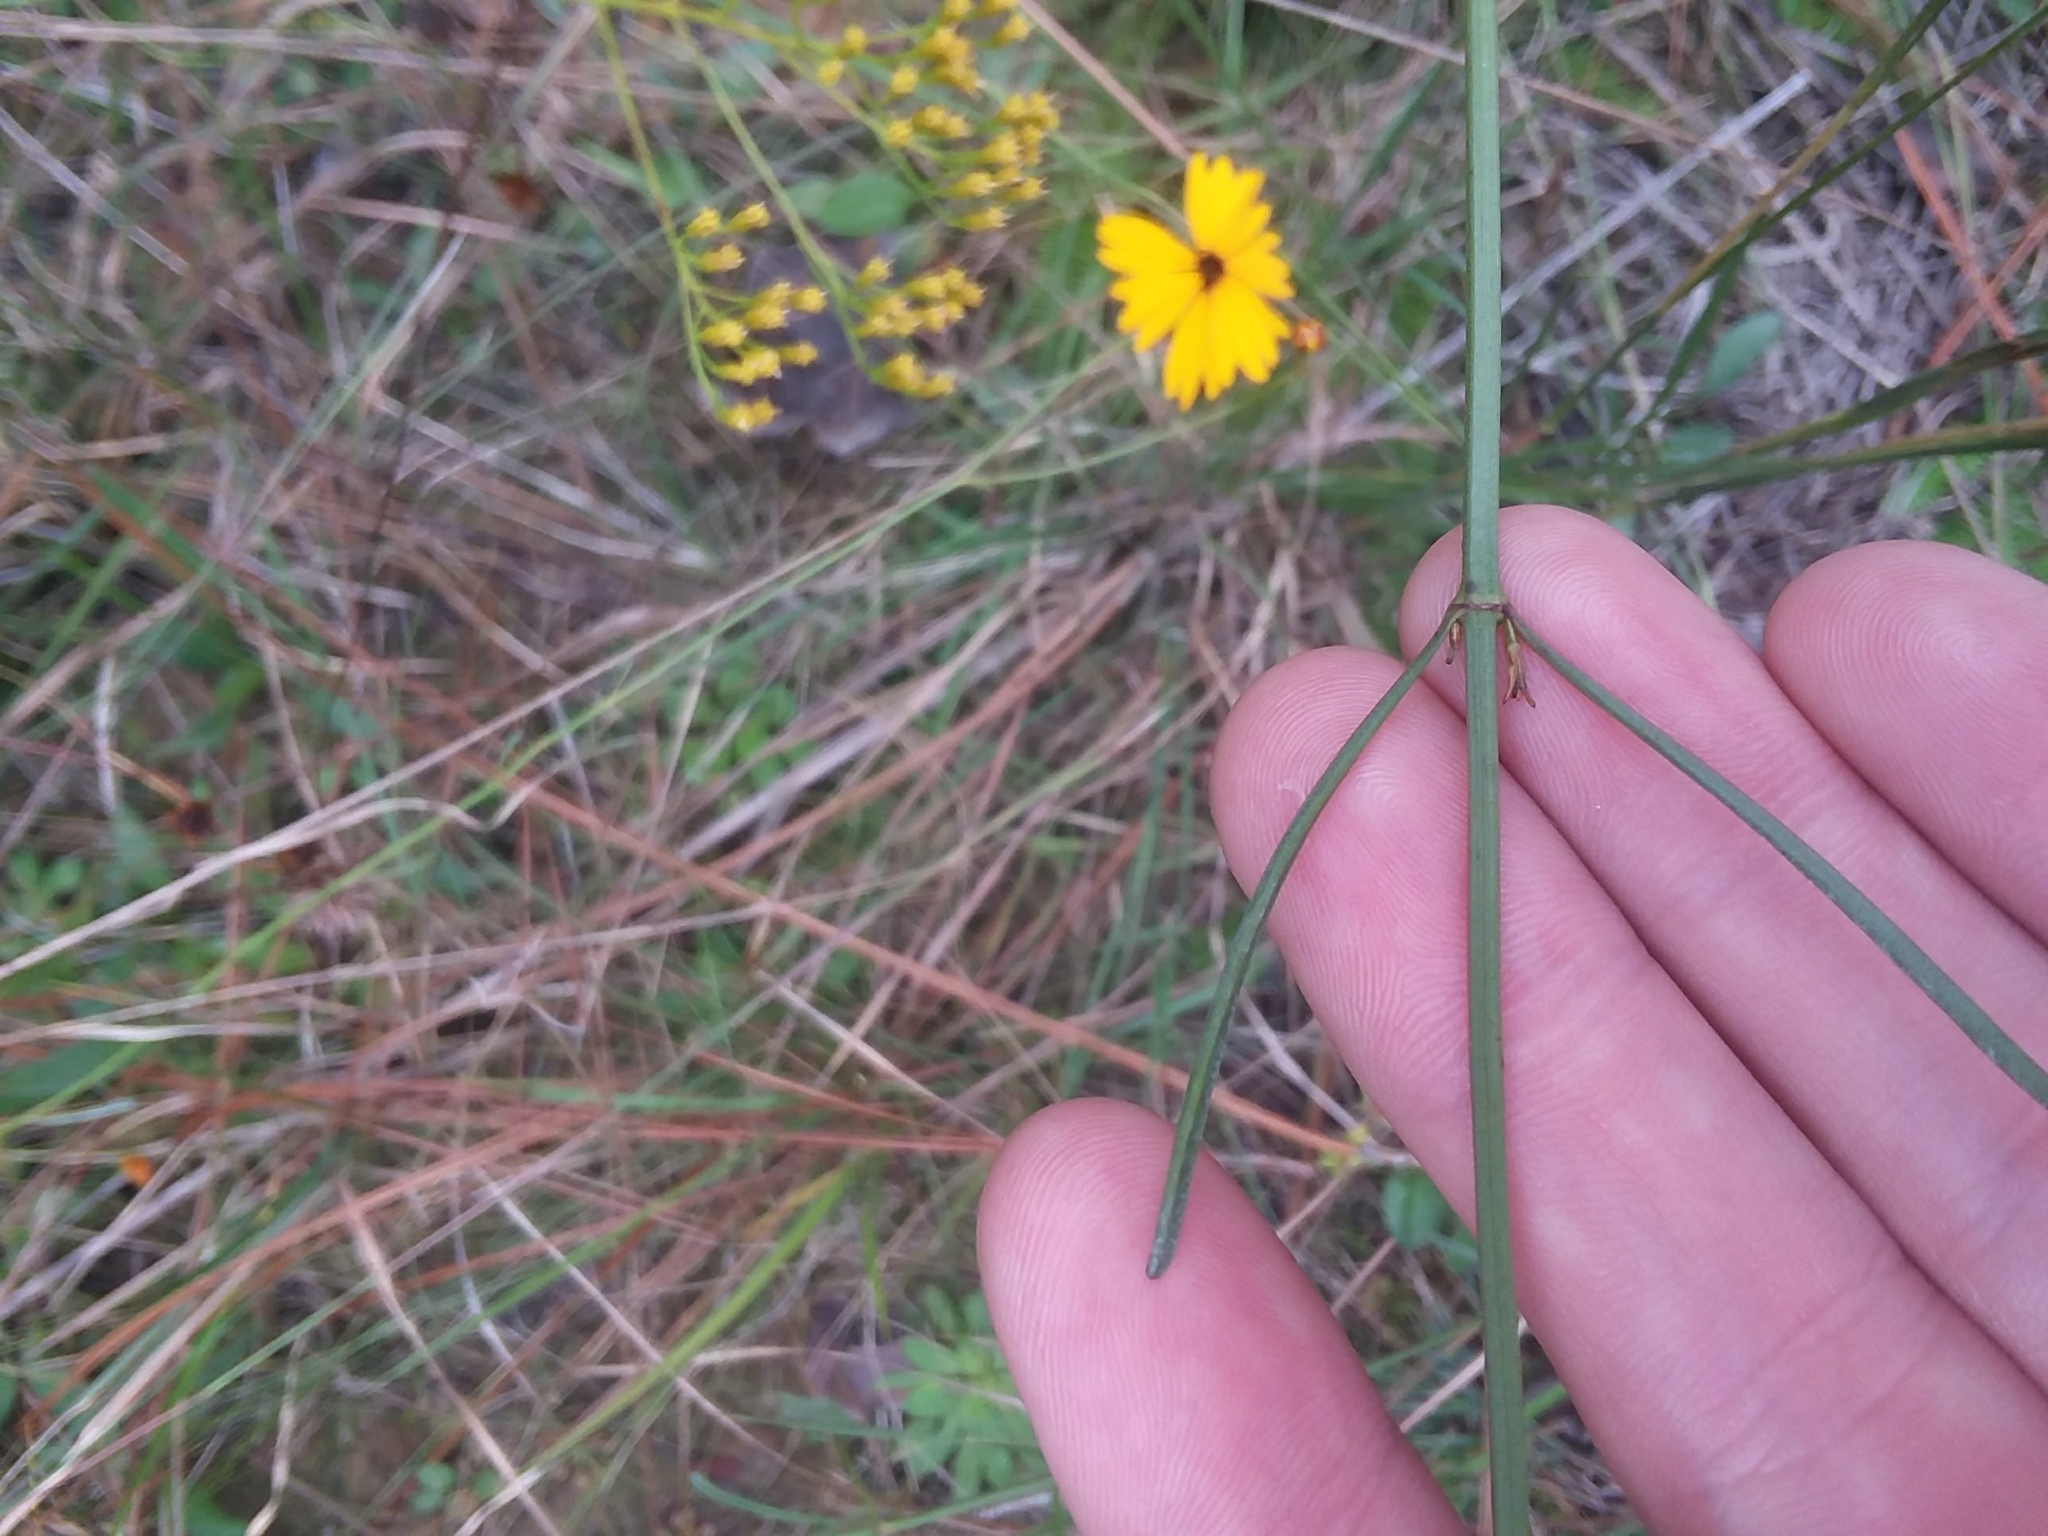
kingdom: Plantae
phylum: Tracheophyta
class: Magnoliopsida
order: Asterales
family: Asteraceae
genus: Coreopsis
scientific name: Coreopsis gladiata
